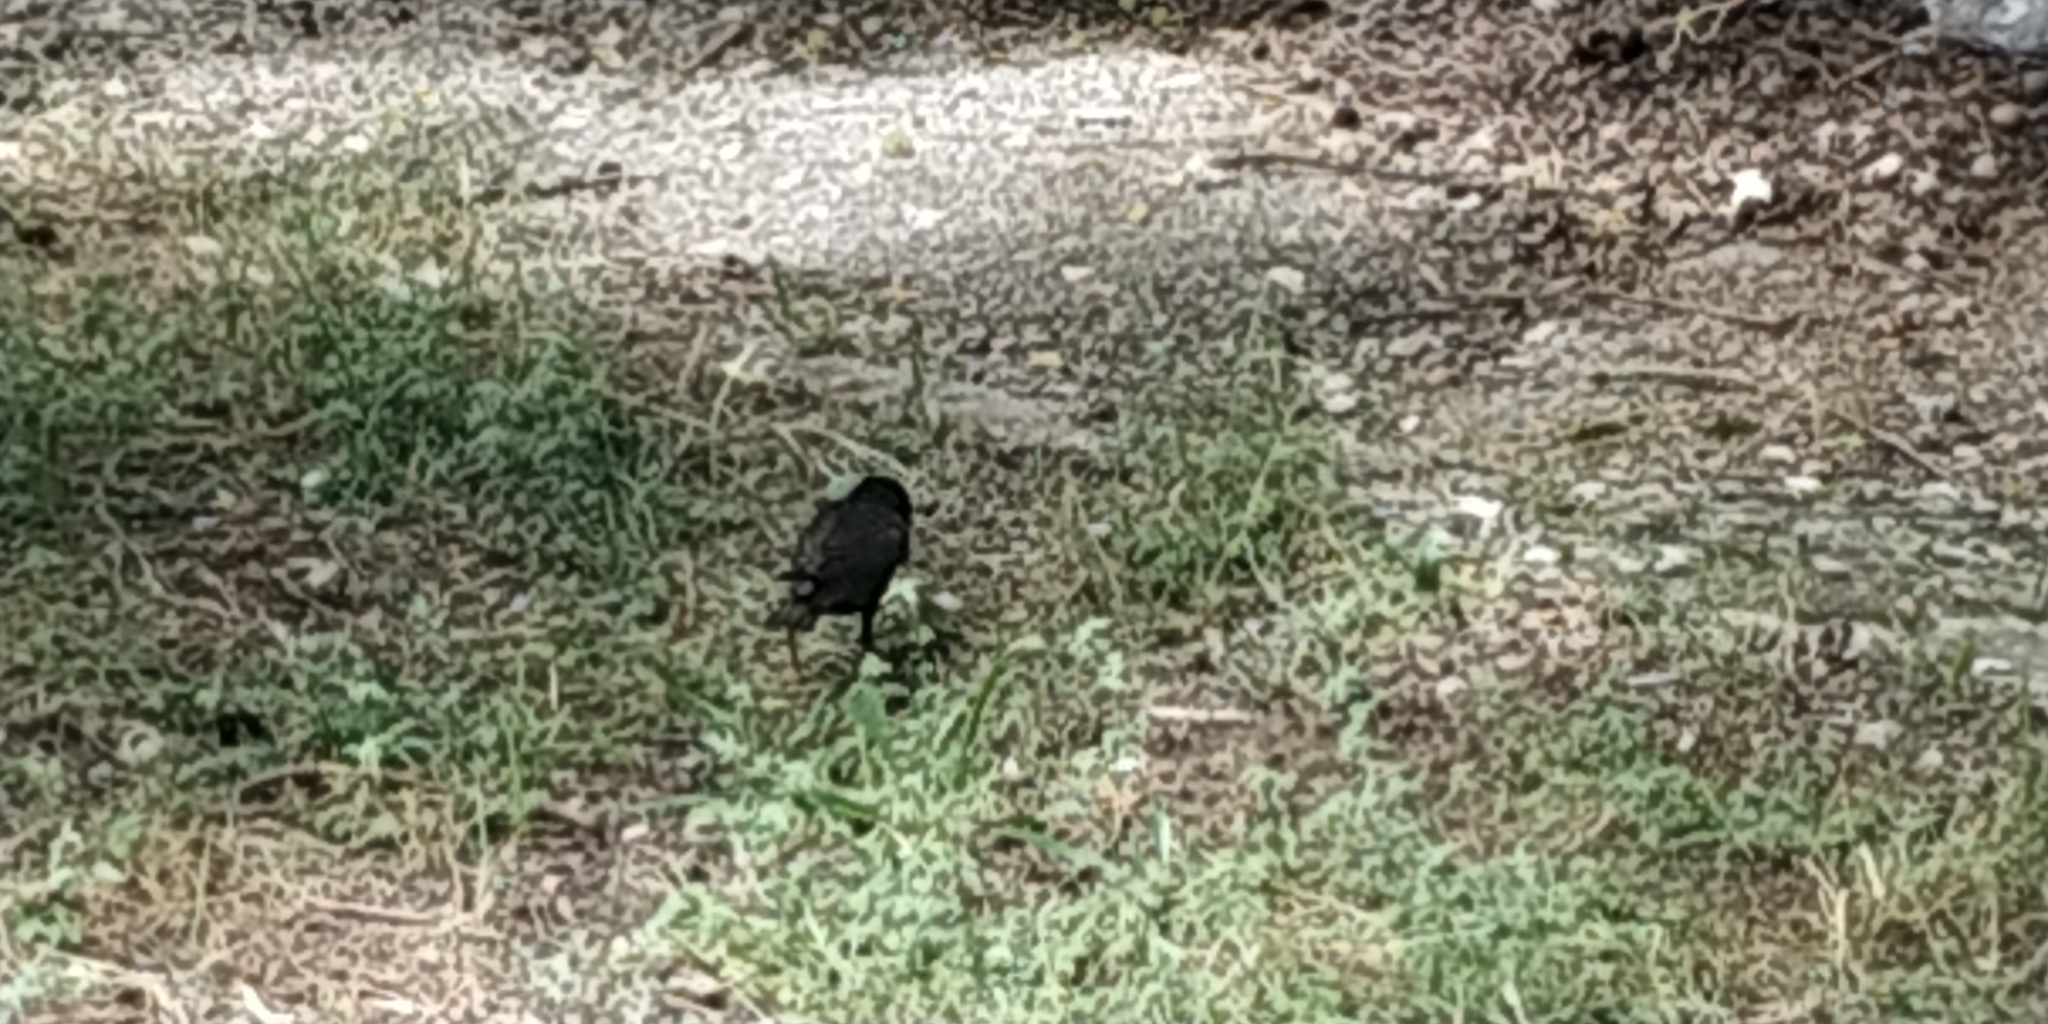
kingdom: Animalia
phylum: Chordata
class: Aves
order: Passeriformes
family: Sturnidae
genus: Sturnus
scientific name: Sturnus vulgaris
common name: Common starling
